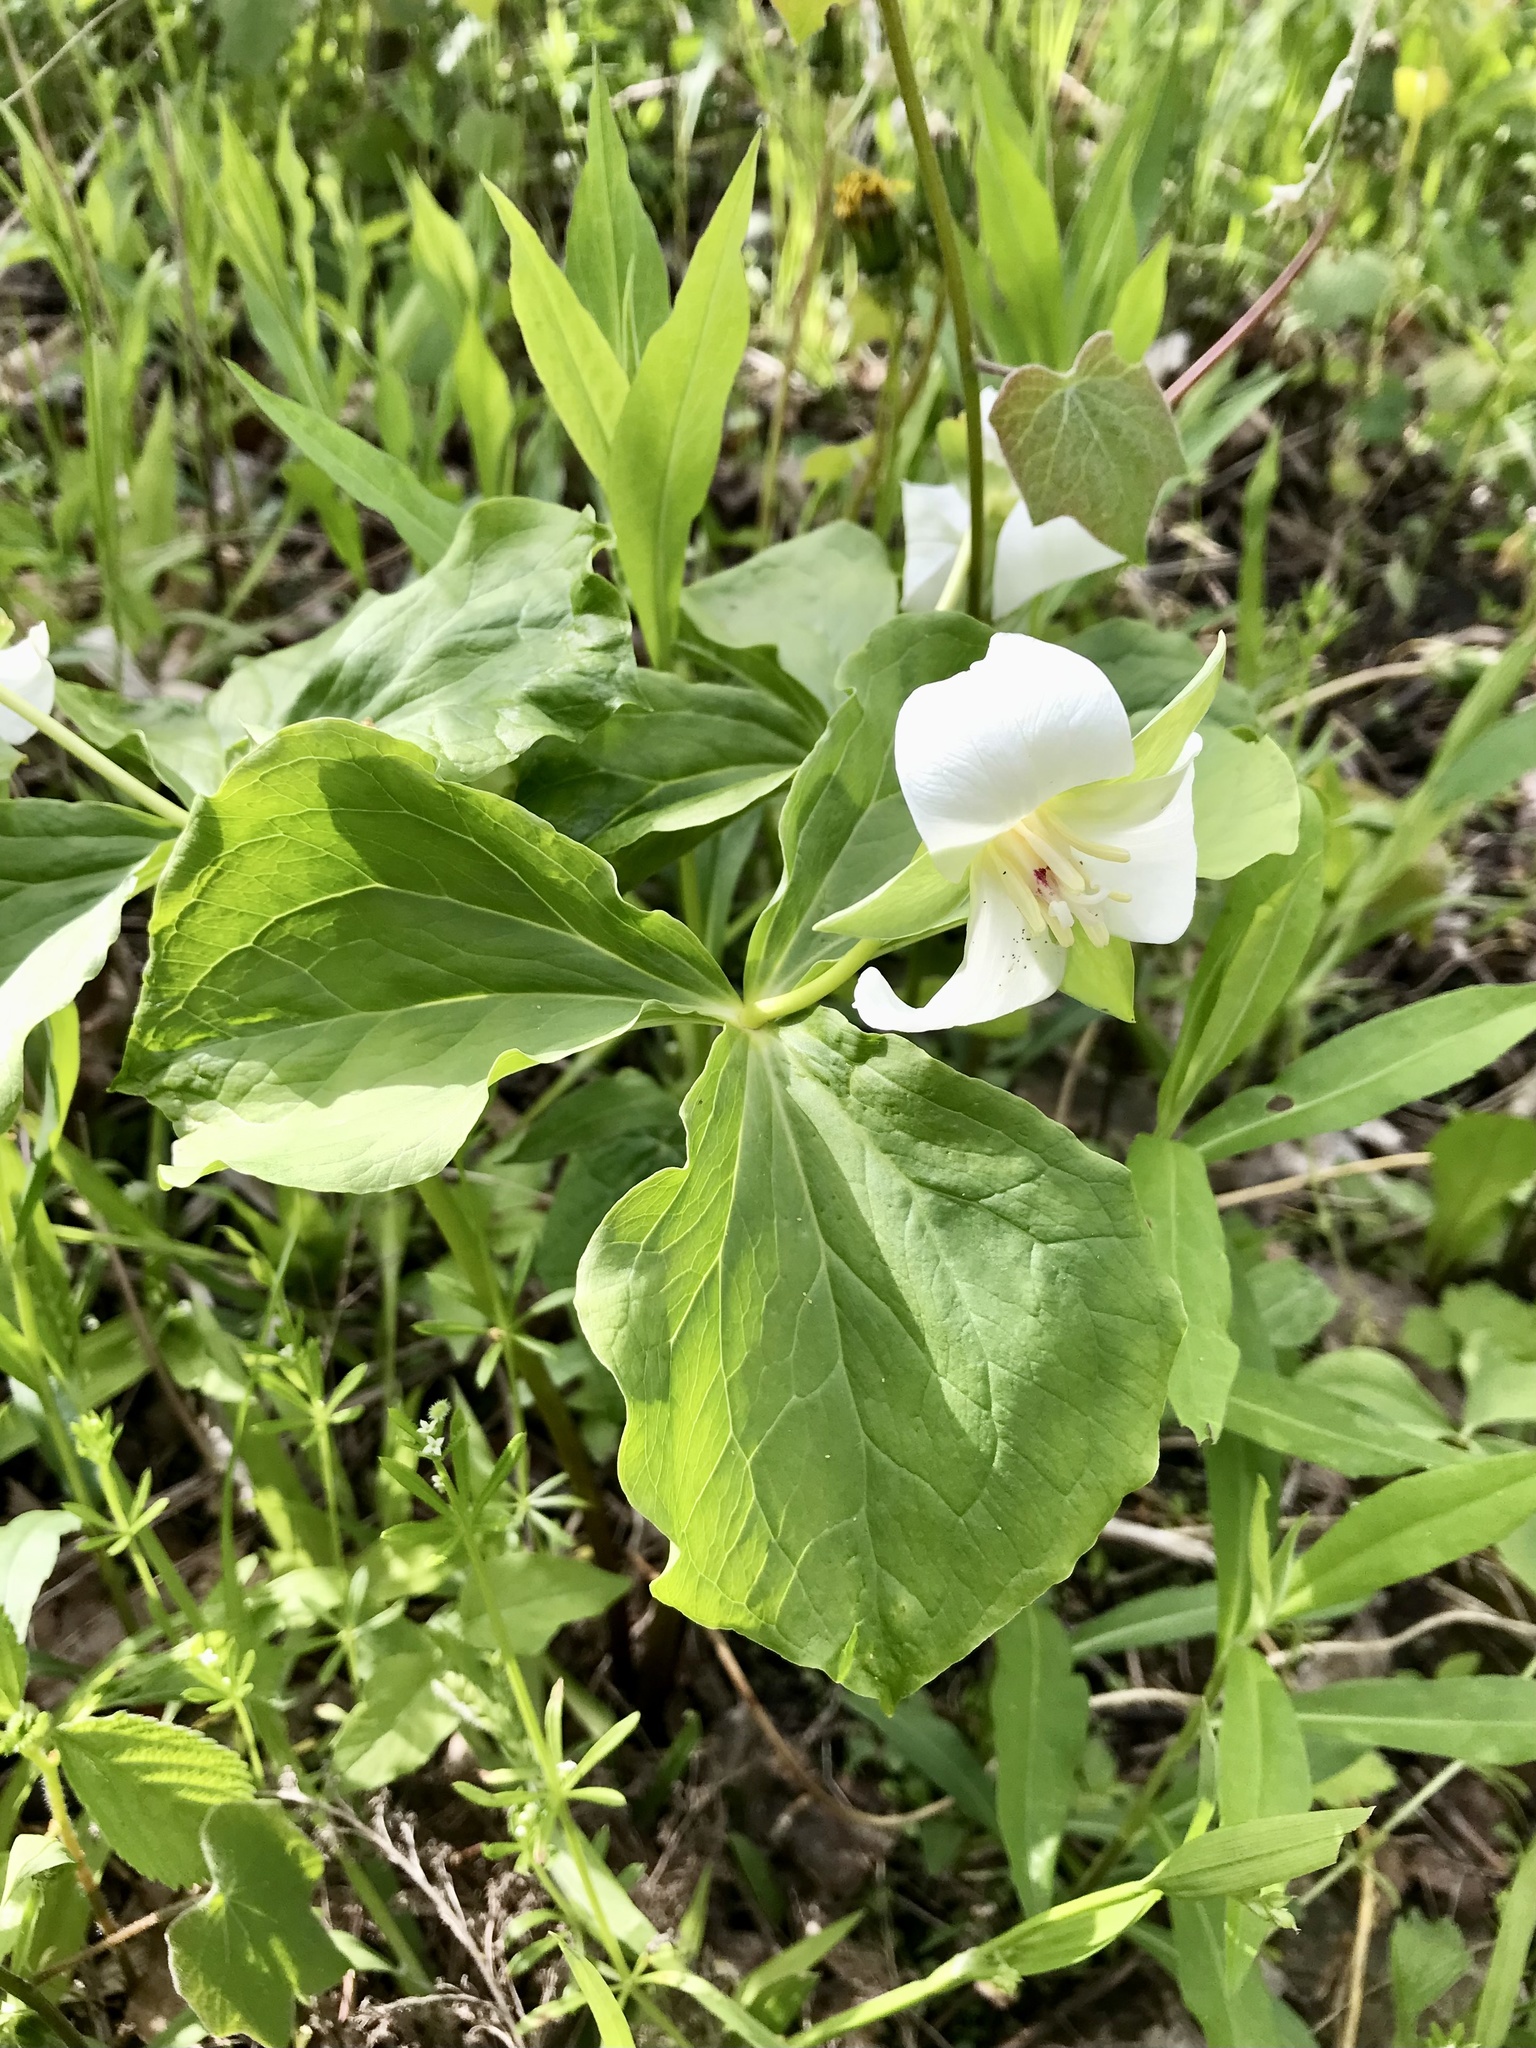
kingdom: Plantae
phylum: Tracheophyta
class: Liliopsida
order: Liliales
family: Melanthiaceae
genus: Trillium
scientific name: Trillium flexipes
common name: Drooping trillium
